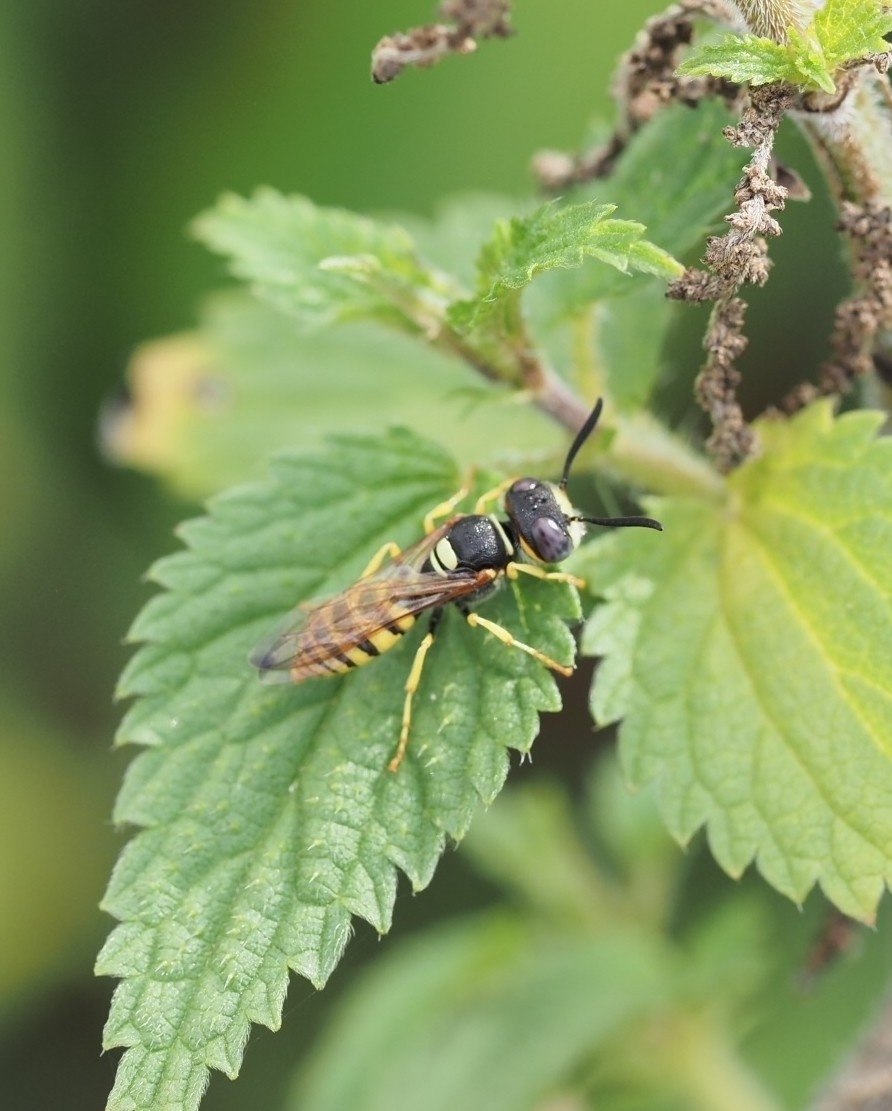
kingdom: Animalia
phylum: Arthropoda
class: Insecta
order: Hymenoptera
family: Crabronidae
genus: Philanthus
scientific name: Philanthus triangulum
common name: Bee wolf
